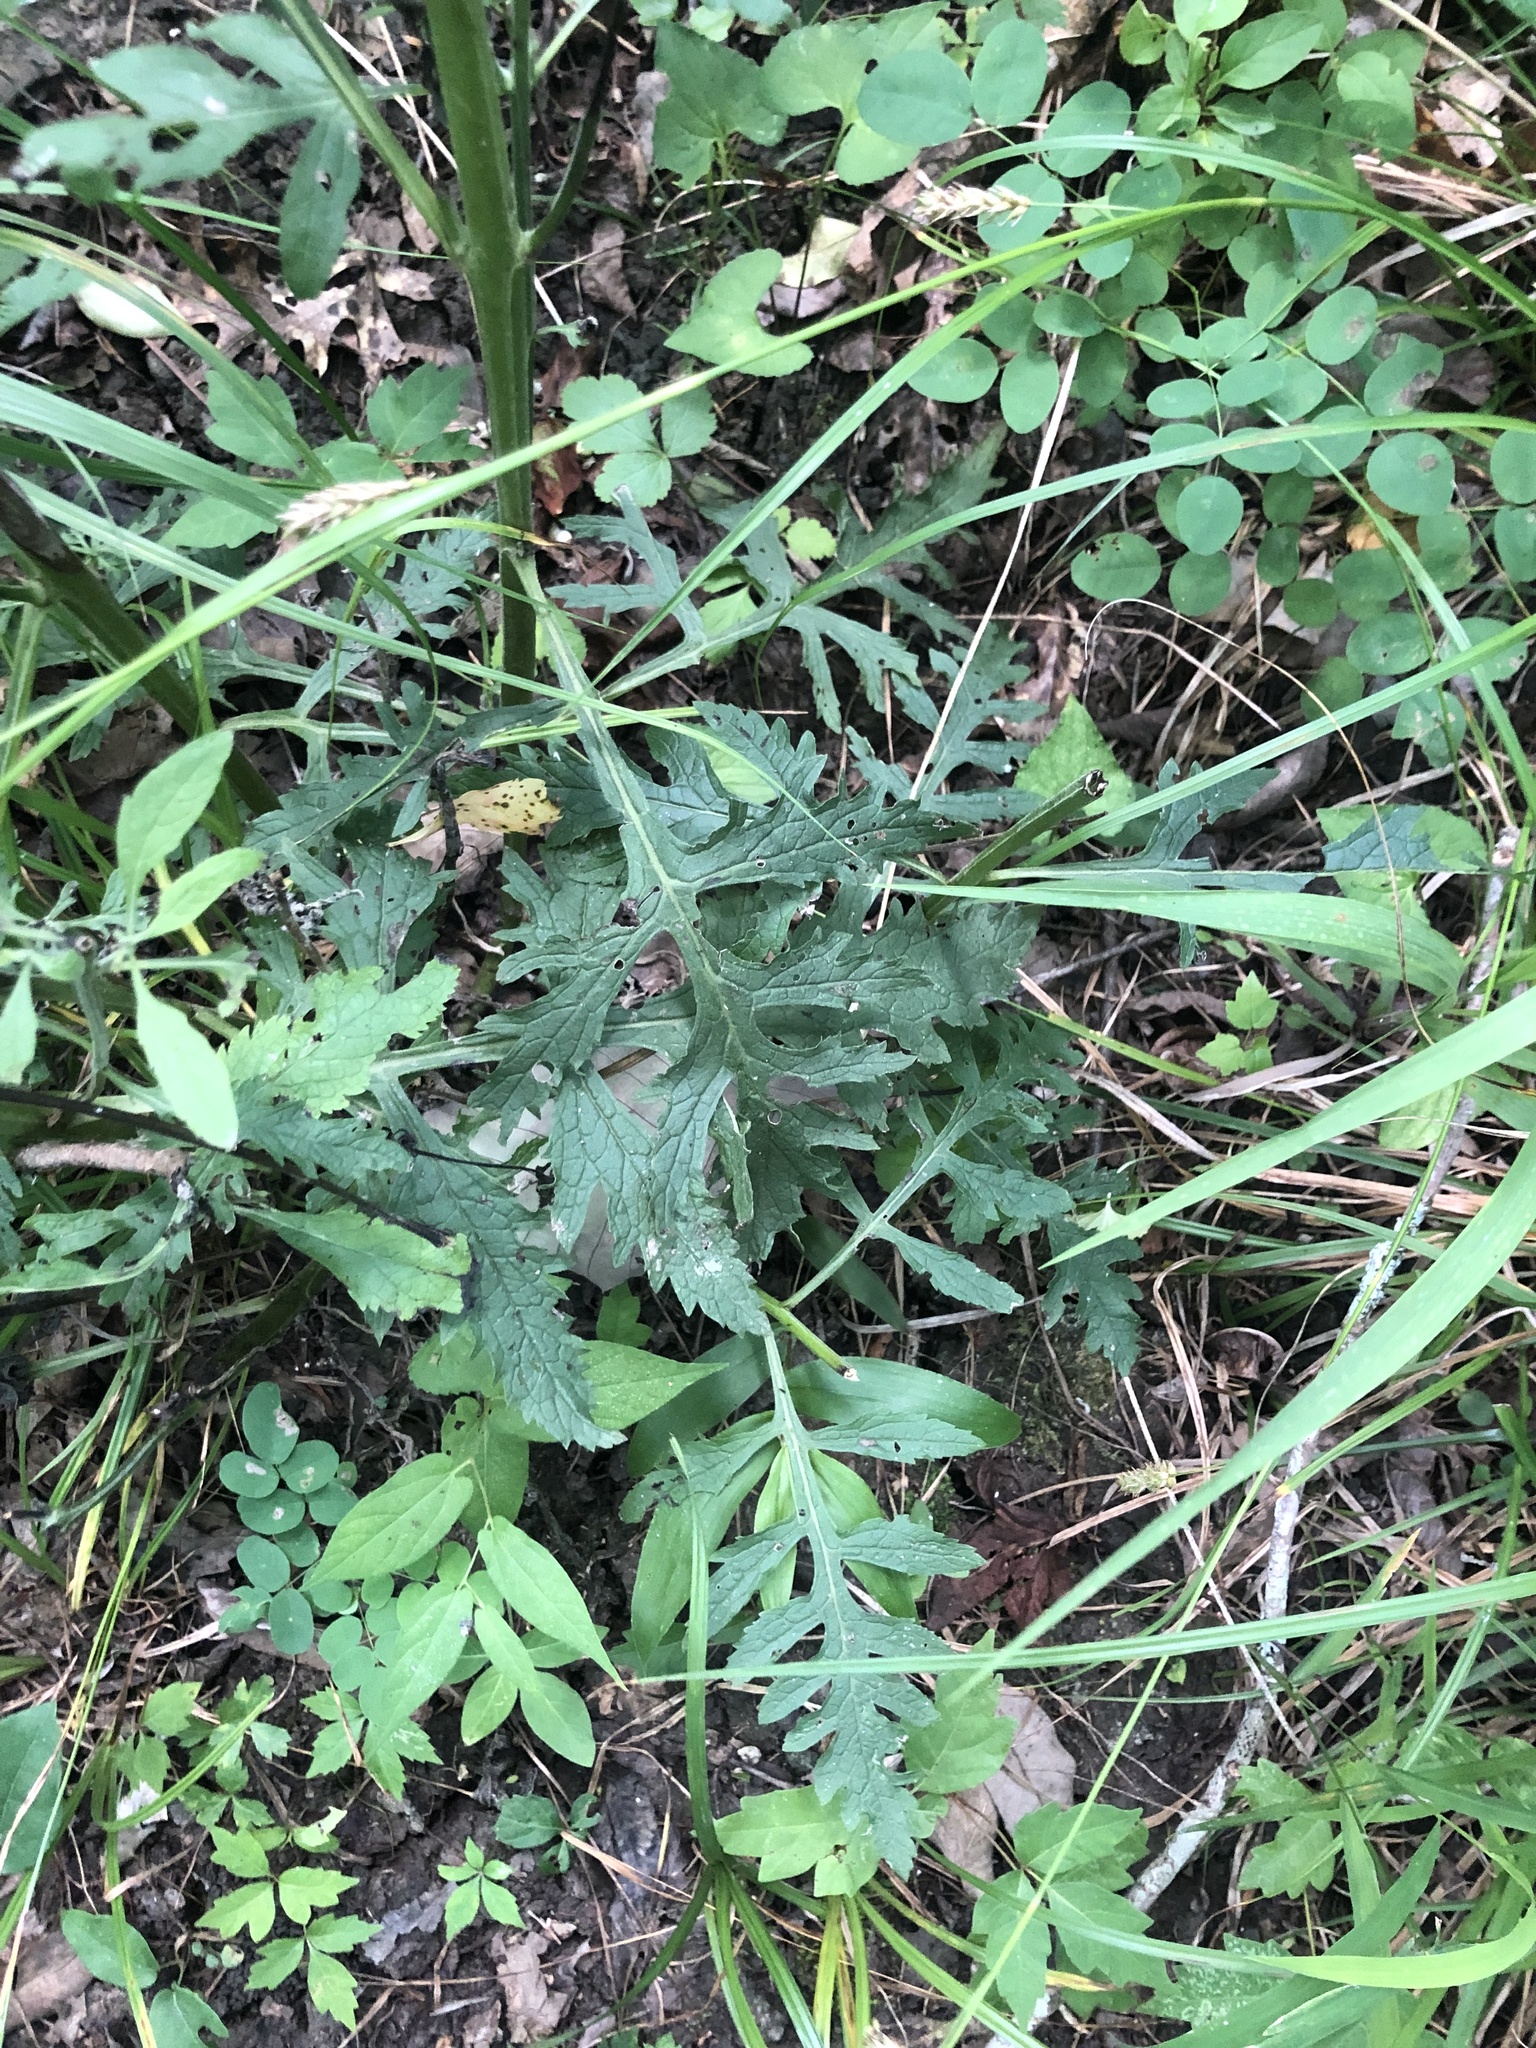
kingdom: Plantae
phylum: Tracheophyta
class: Magnoliopsida
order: Lamiales
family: Orobanchaceae
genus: Dasistoma
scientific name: Dasistoma macrophyllum
